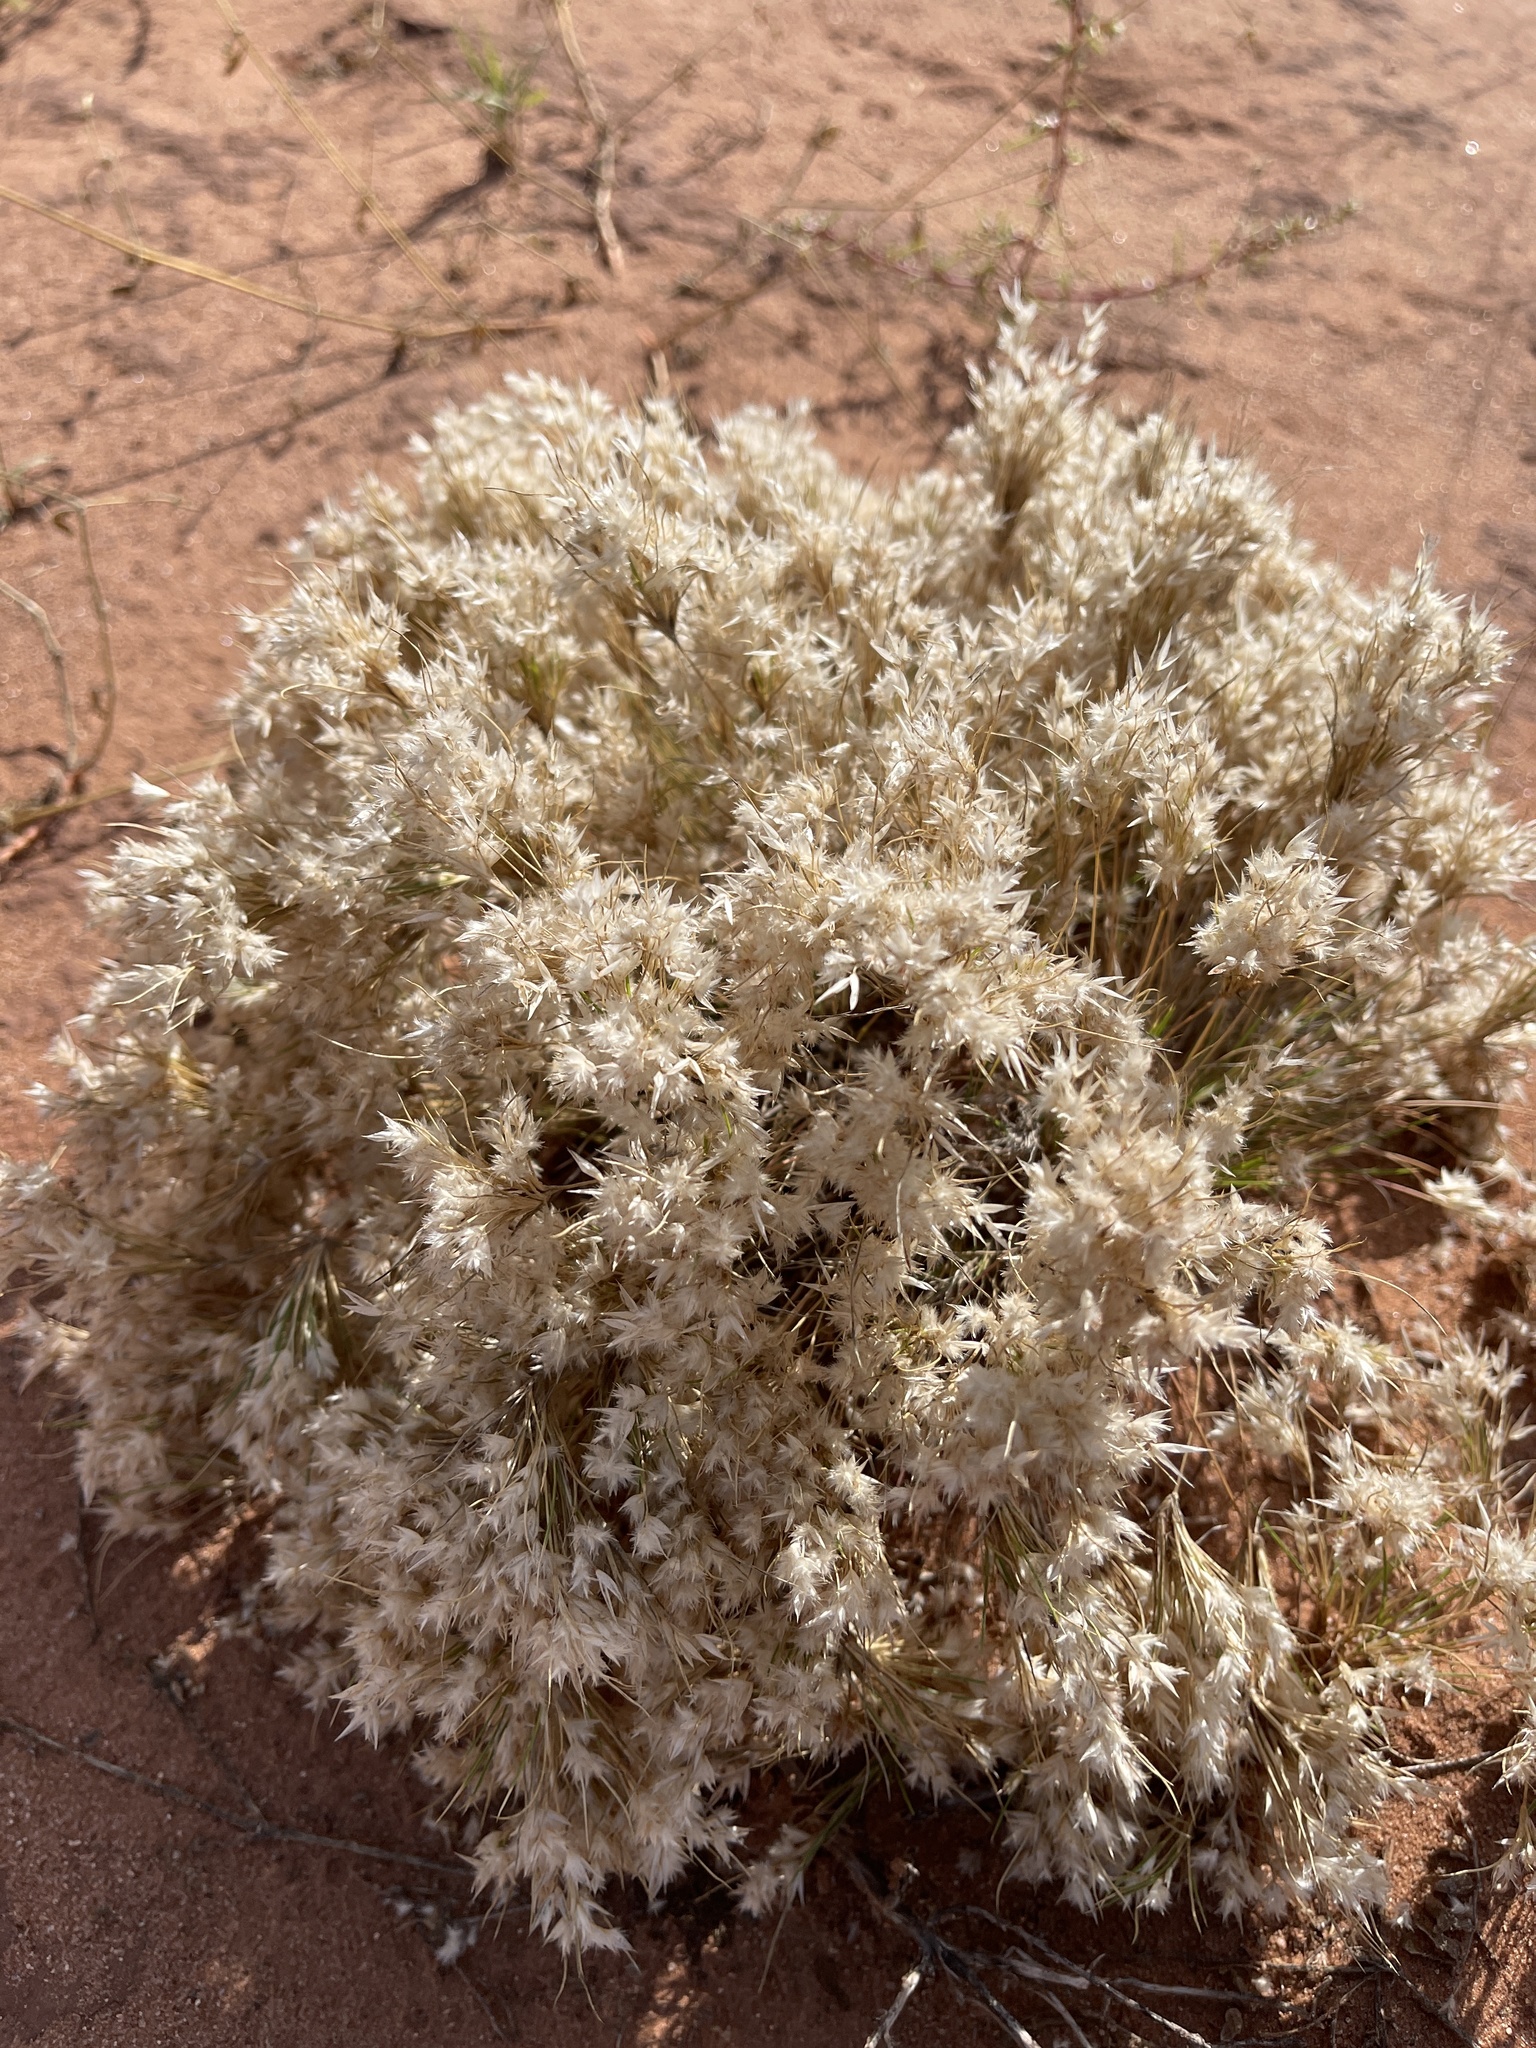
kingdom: Plantae
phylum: Tracheophyta
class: Liliopsida
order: Poales
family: Poaceae
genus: Dasyochloa
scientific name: Dasyochloa pulchella
